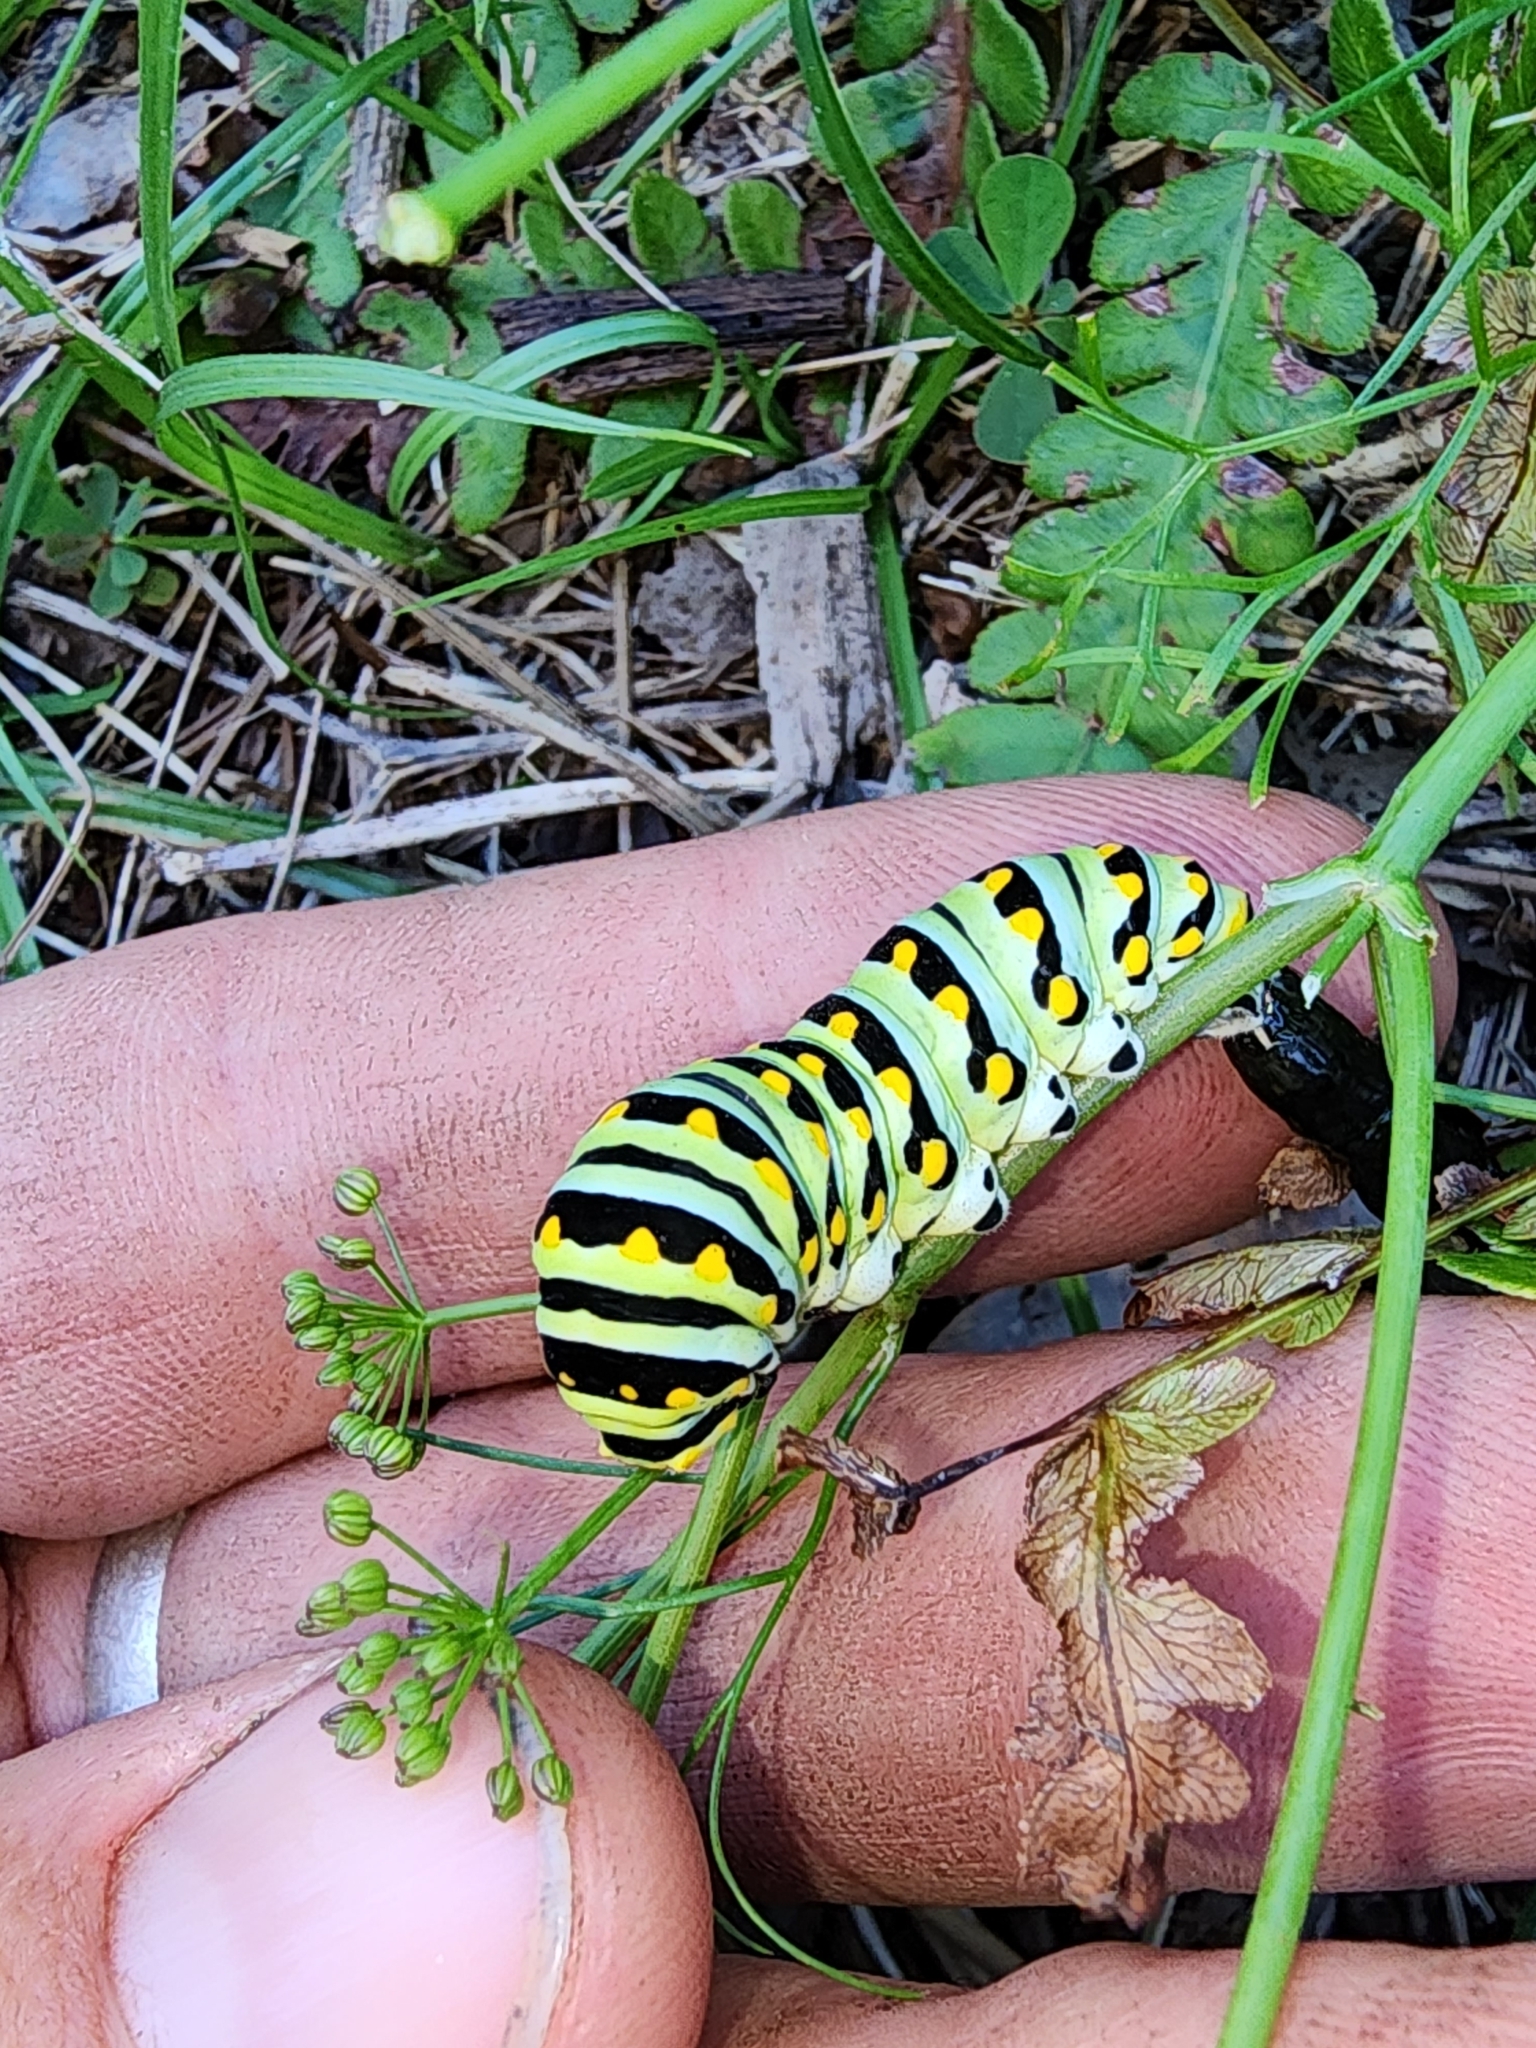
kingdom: Animalia
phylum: Arthropoda
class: Insecta
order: Lepidoptera
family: Papilionidae
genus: Papilio
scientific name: Papilio polyxenes
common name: Black swallowtail
